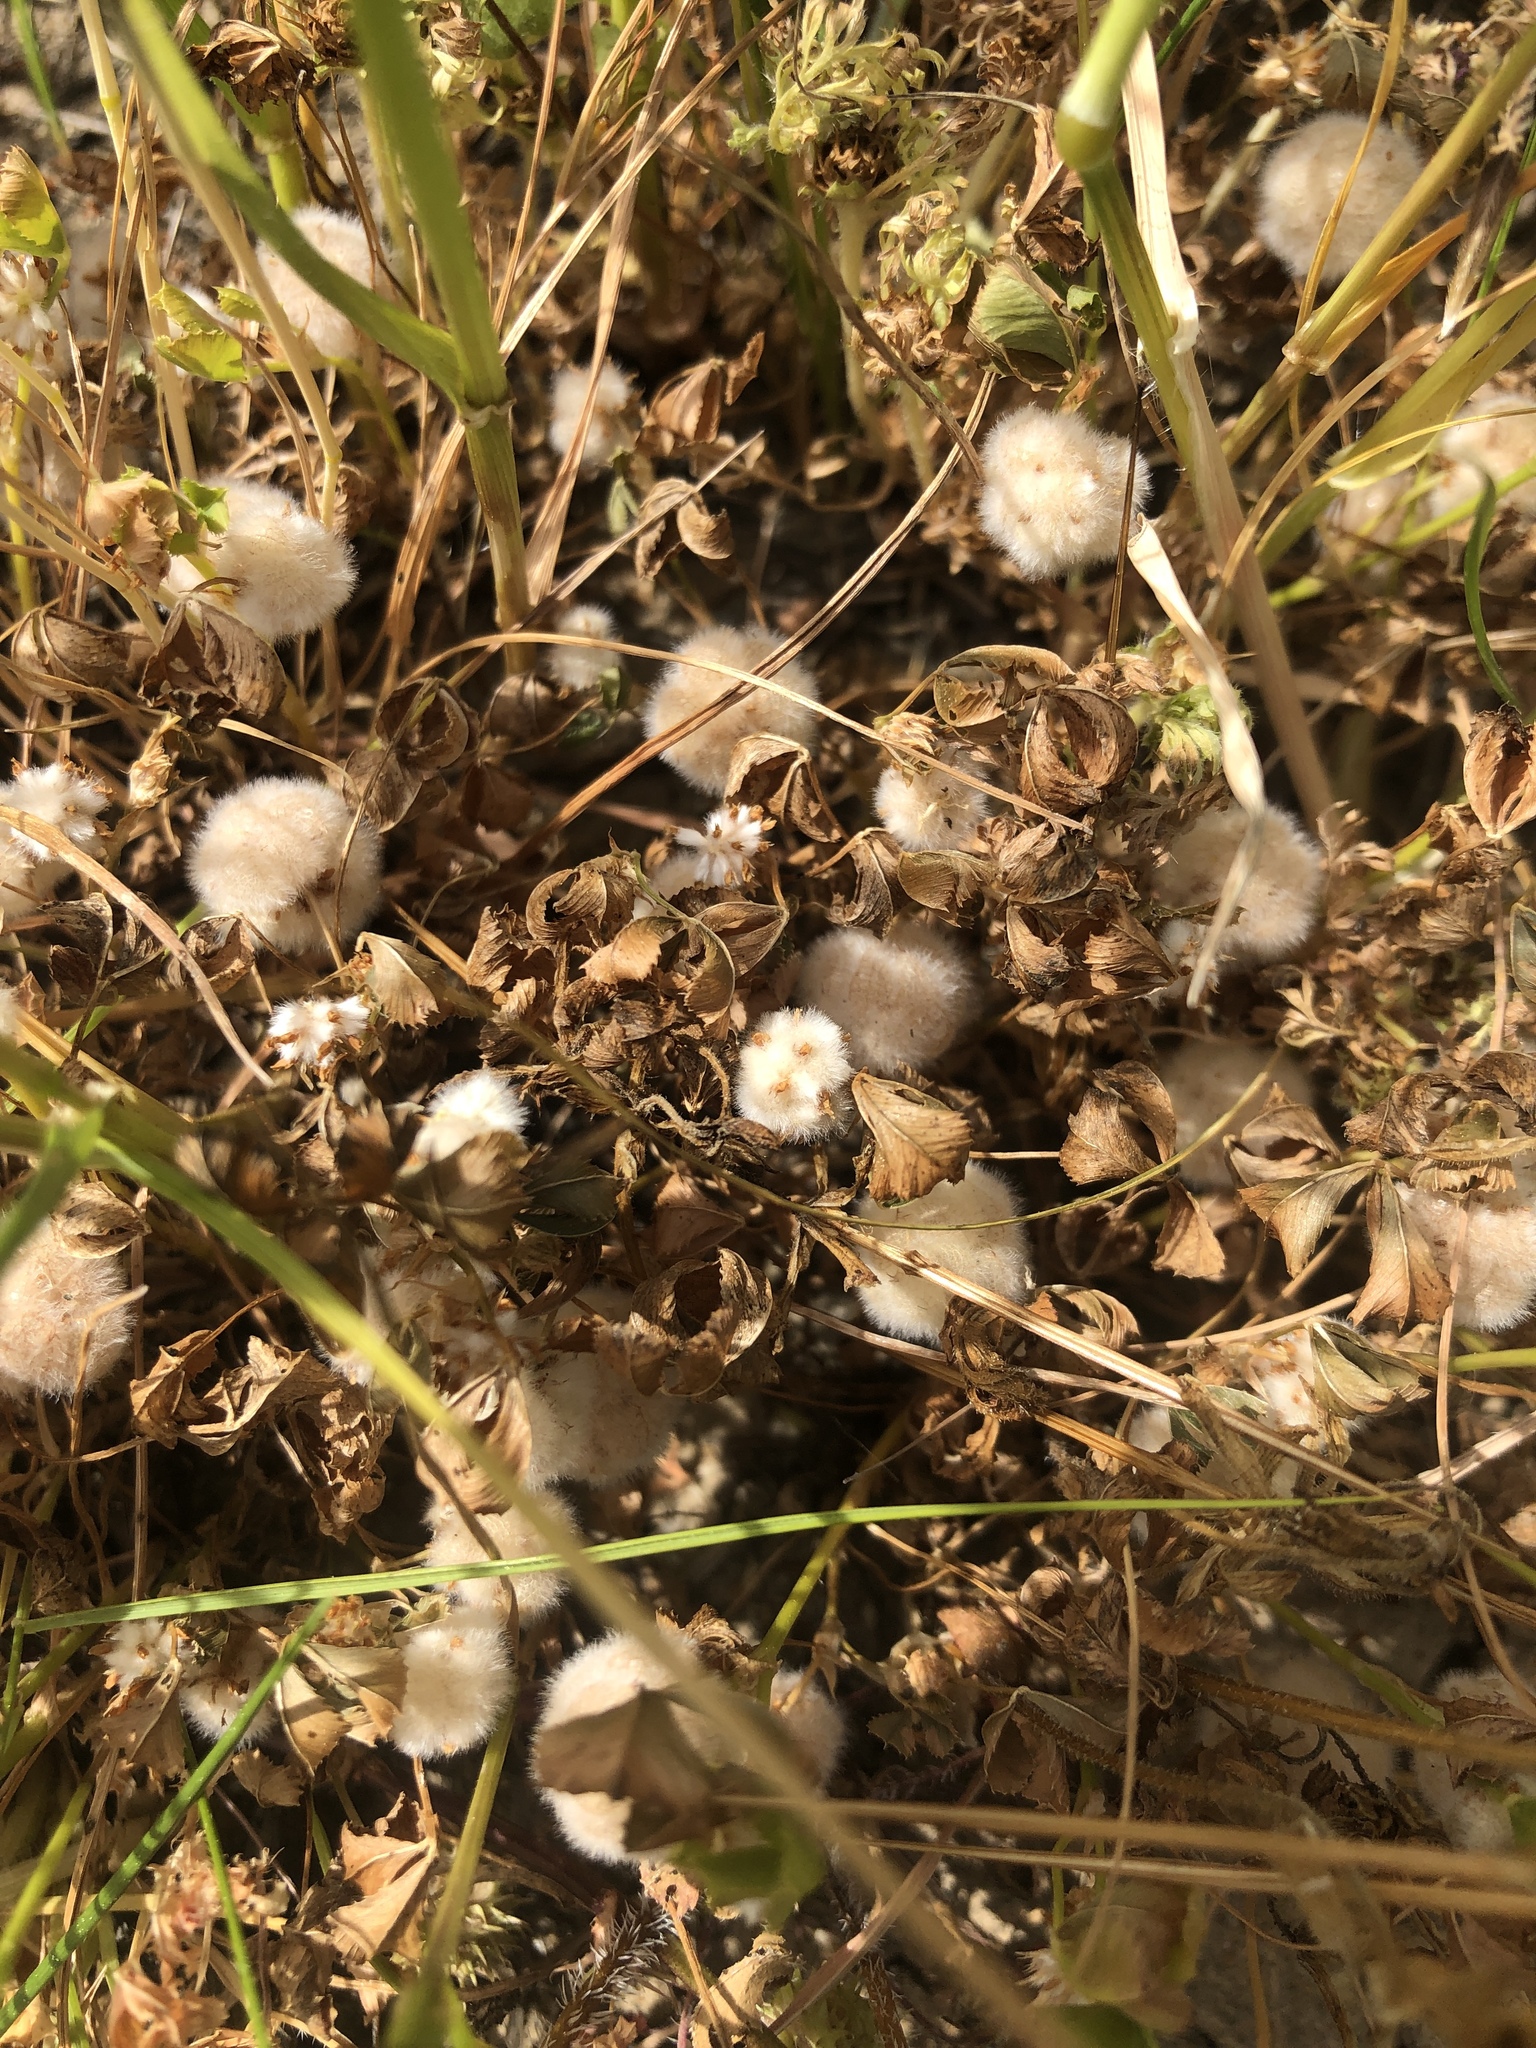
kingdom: Plantae
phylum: Tracheophyta
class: Magnoliopsida
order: Fabales
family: Fabaceae
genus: Trifolium
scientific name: Trifolium tomentosum
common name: Woolly clover
